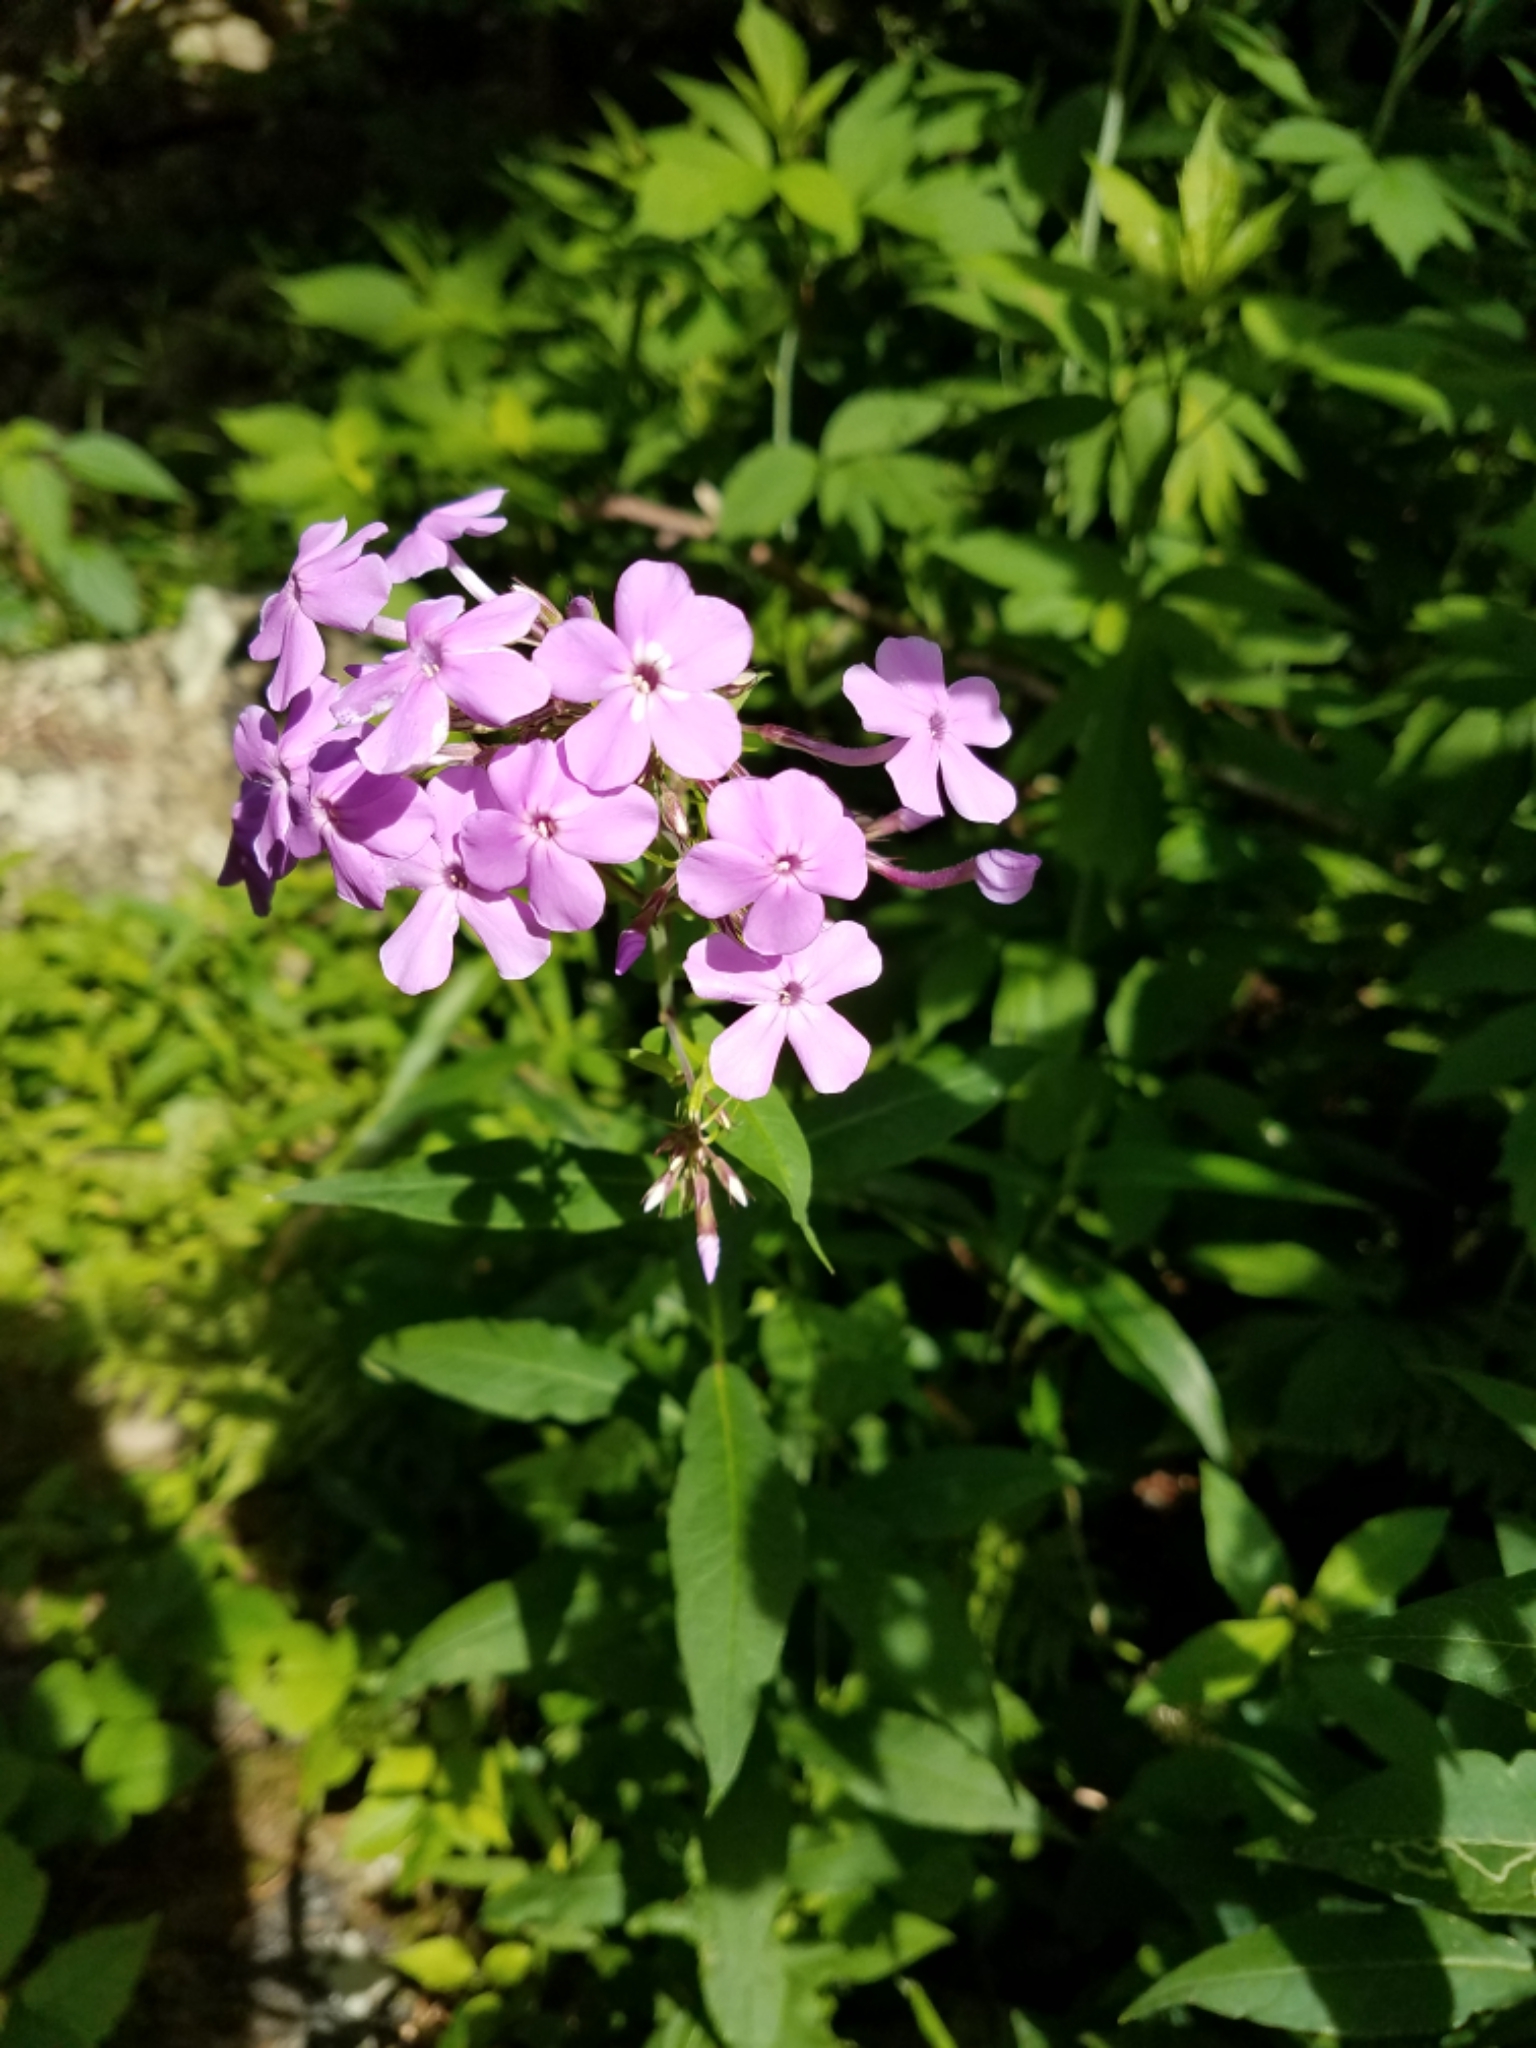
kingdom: Plantae
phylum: Tracheophyta
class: Magnoliopsida
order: Ericales
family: Polemoniaceae
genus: Phlox
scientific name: Phlox paniculata
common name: Fall phlox
